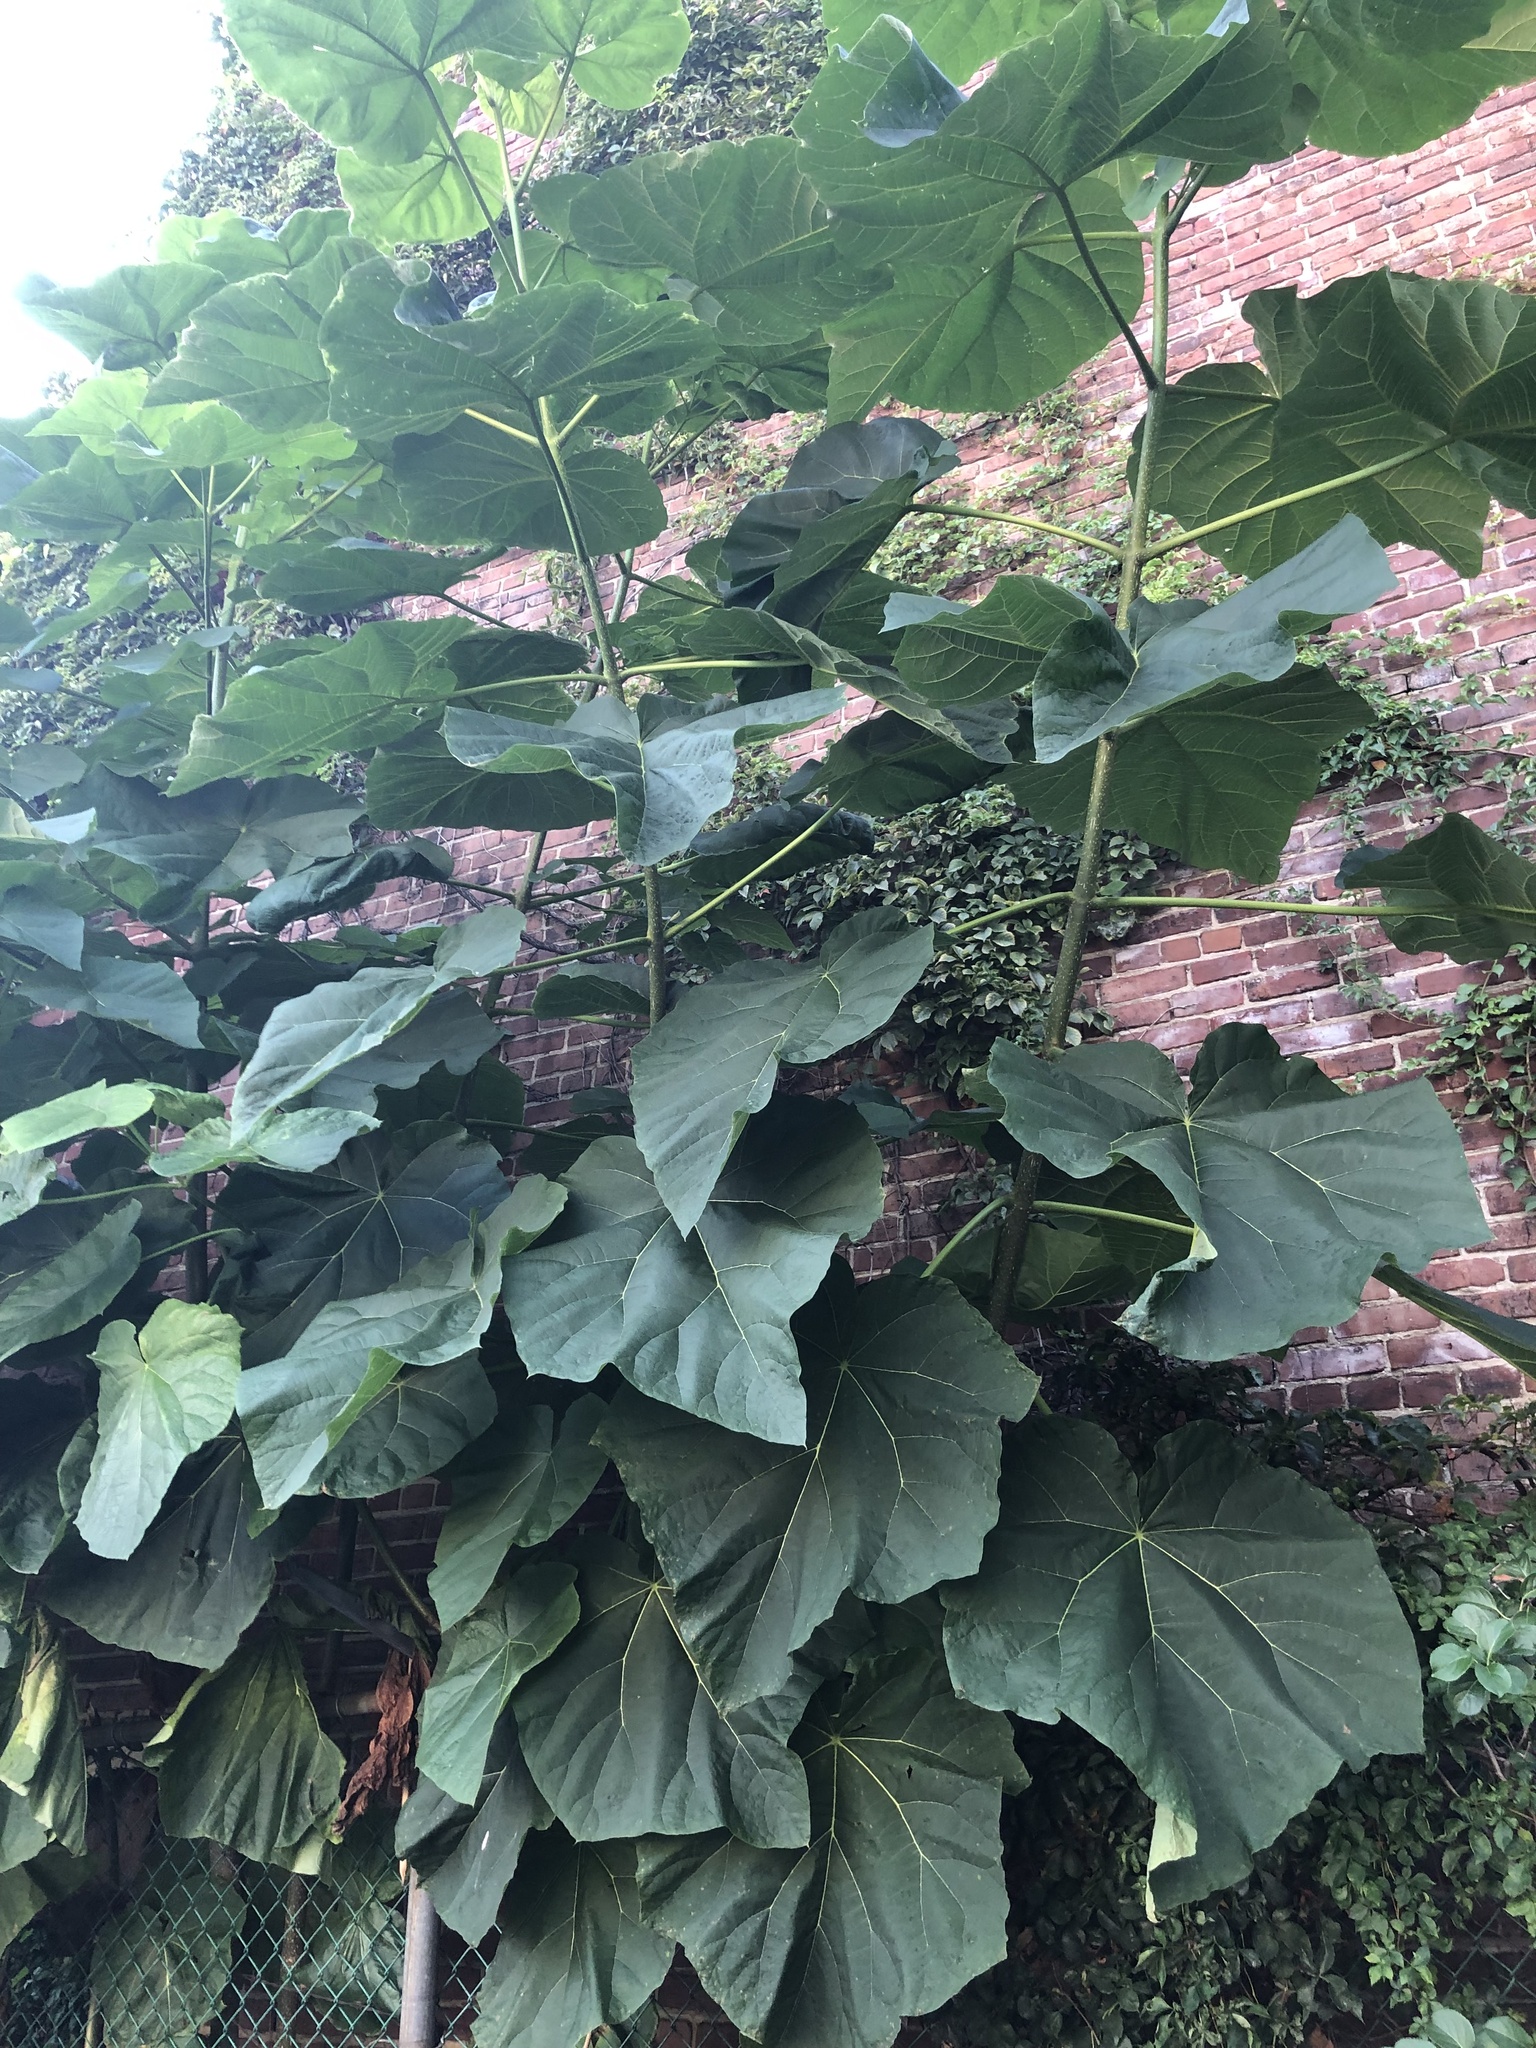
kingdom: Plantae
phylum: Tracheophyta
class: Magnoliopsida
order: Lamiales
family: Paulowniaceae
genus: Paulownia
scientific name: Paulownia tomentosa
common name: Foxglove-tree
